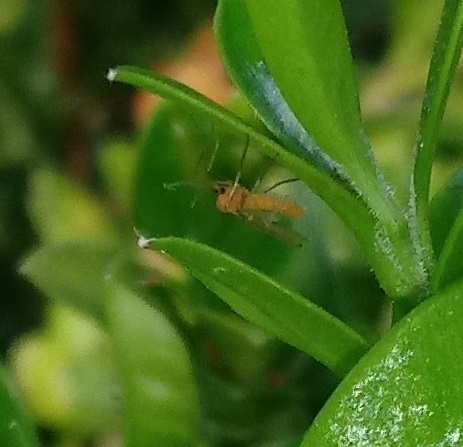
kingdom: Animalia
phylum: Arthropoda
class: Insecta
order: Diptera
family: Cecidomyiidae
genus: Monarthropalpus
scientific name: Monarthropalpus flavus
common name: Boxwood leafminer
